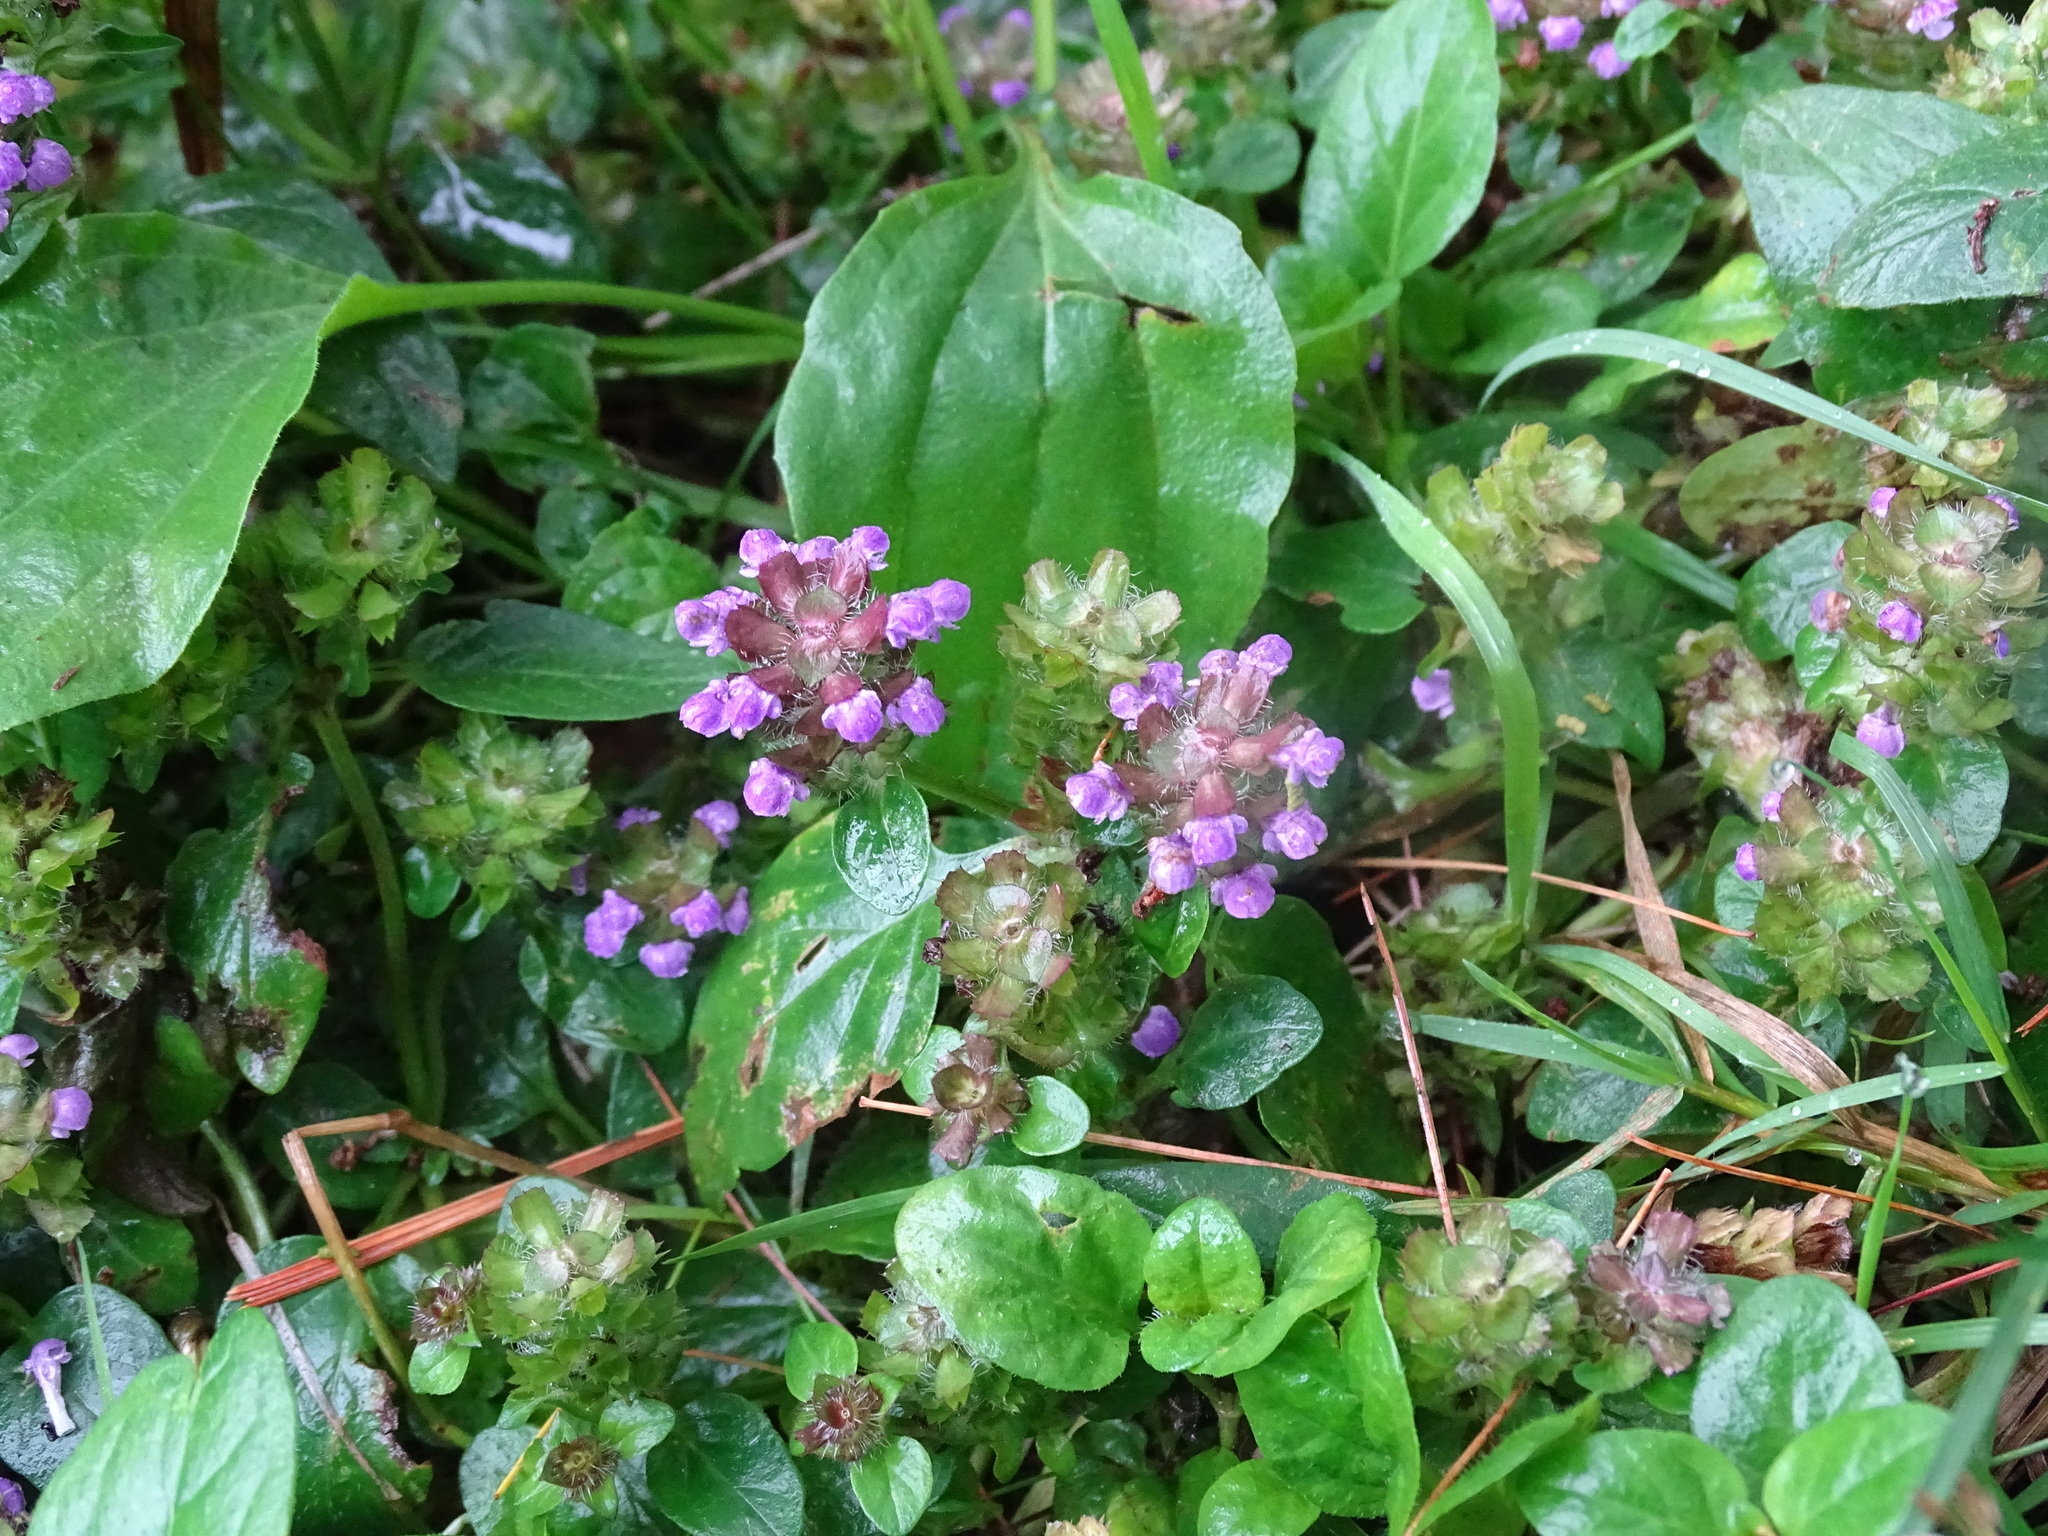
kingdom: Plantae
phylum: Tracheophyta
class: Magnoliopsida
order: Lamiales
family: Lamiaceae
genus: Prunella
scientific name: Prunella vulgaris
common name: Heal-all
